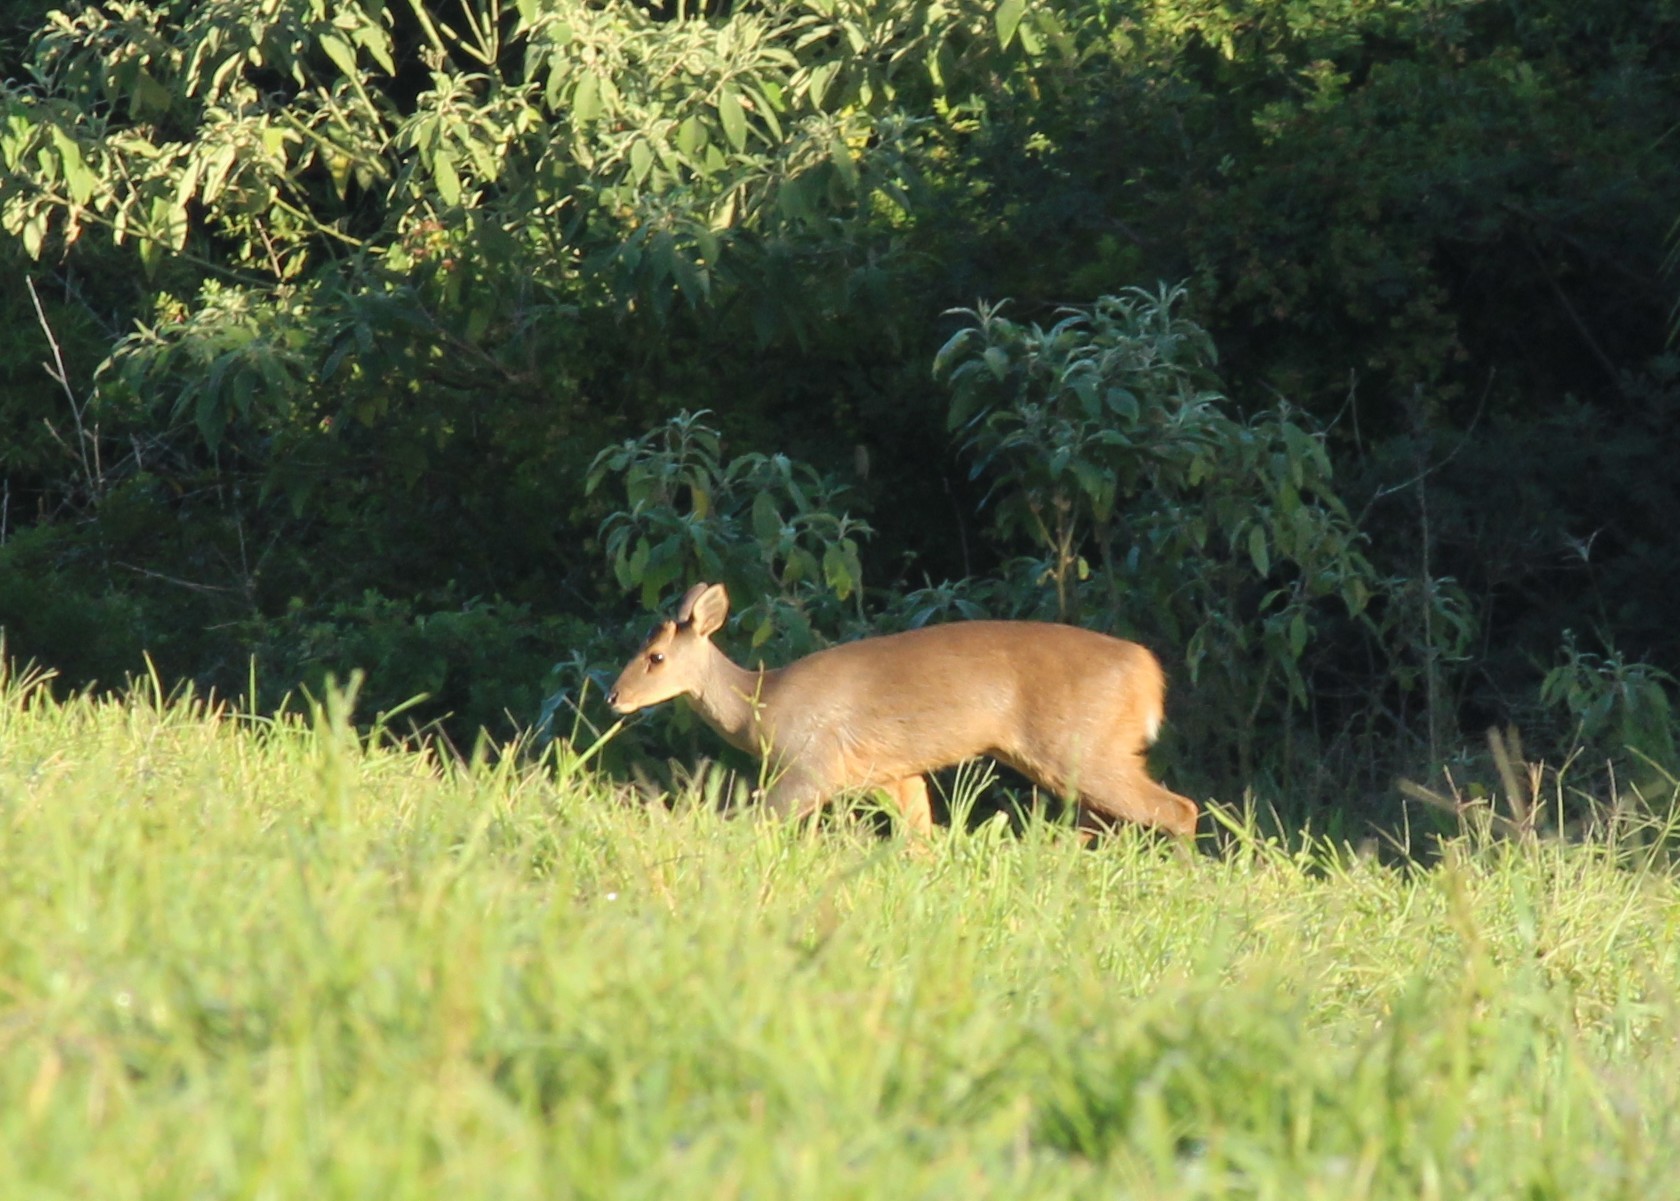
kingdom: Animalia
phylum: Chordata
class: Mammalia
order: Artiodactyla
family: Cervidae
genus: Mazama
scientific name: Mazama gouazoubira
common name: Gray brocket
